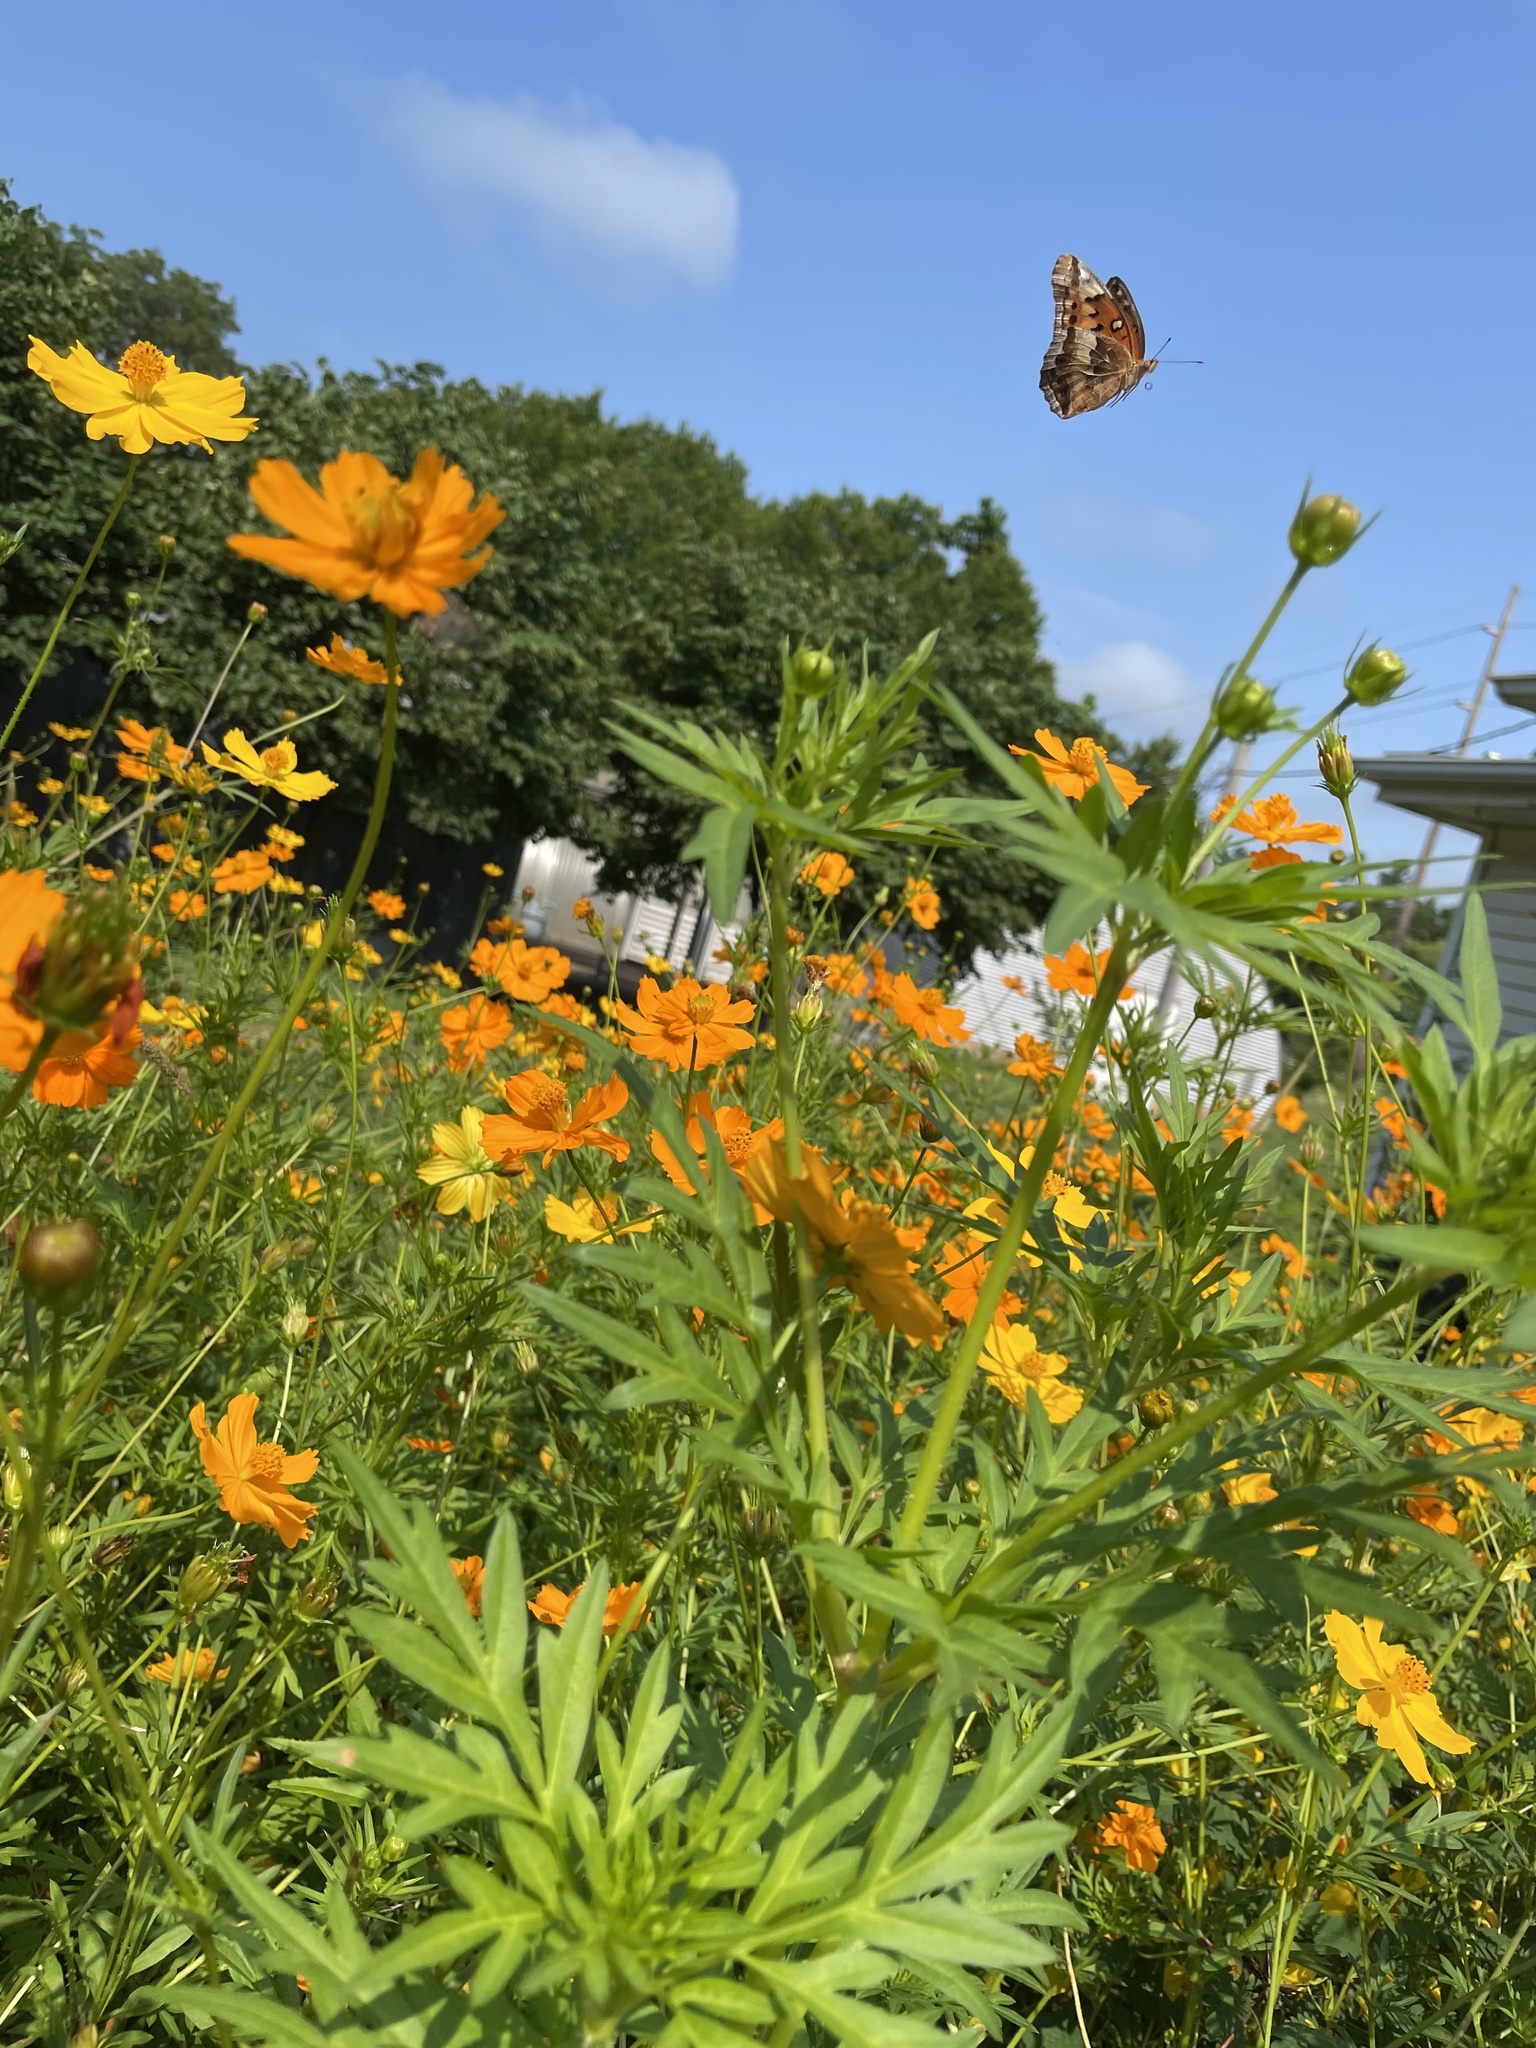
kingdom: Animalia
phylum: Arthropoda
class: Insecta
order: Lepidoptera
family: Nymphalidae
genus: Euptoieta
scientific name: Euptoieta claudia
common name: Variegated fritillary
